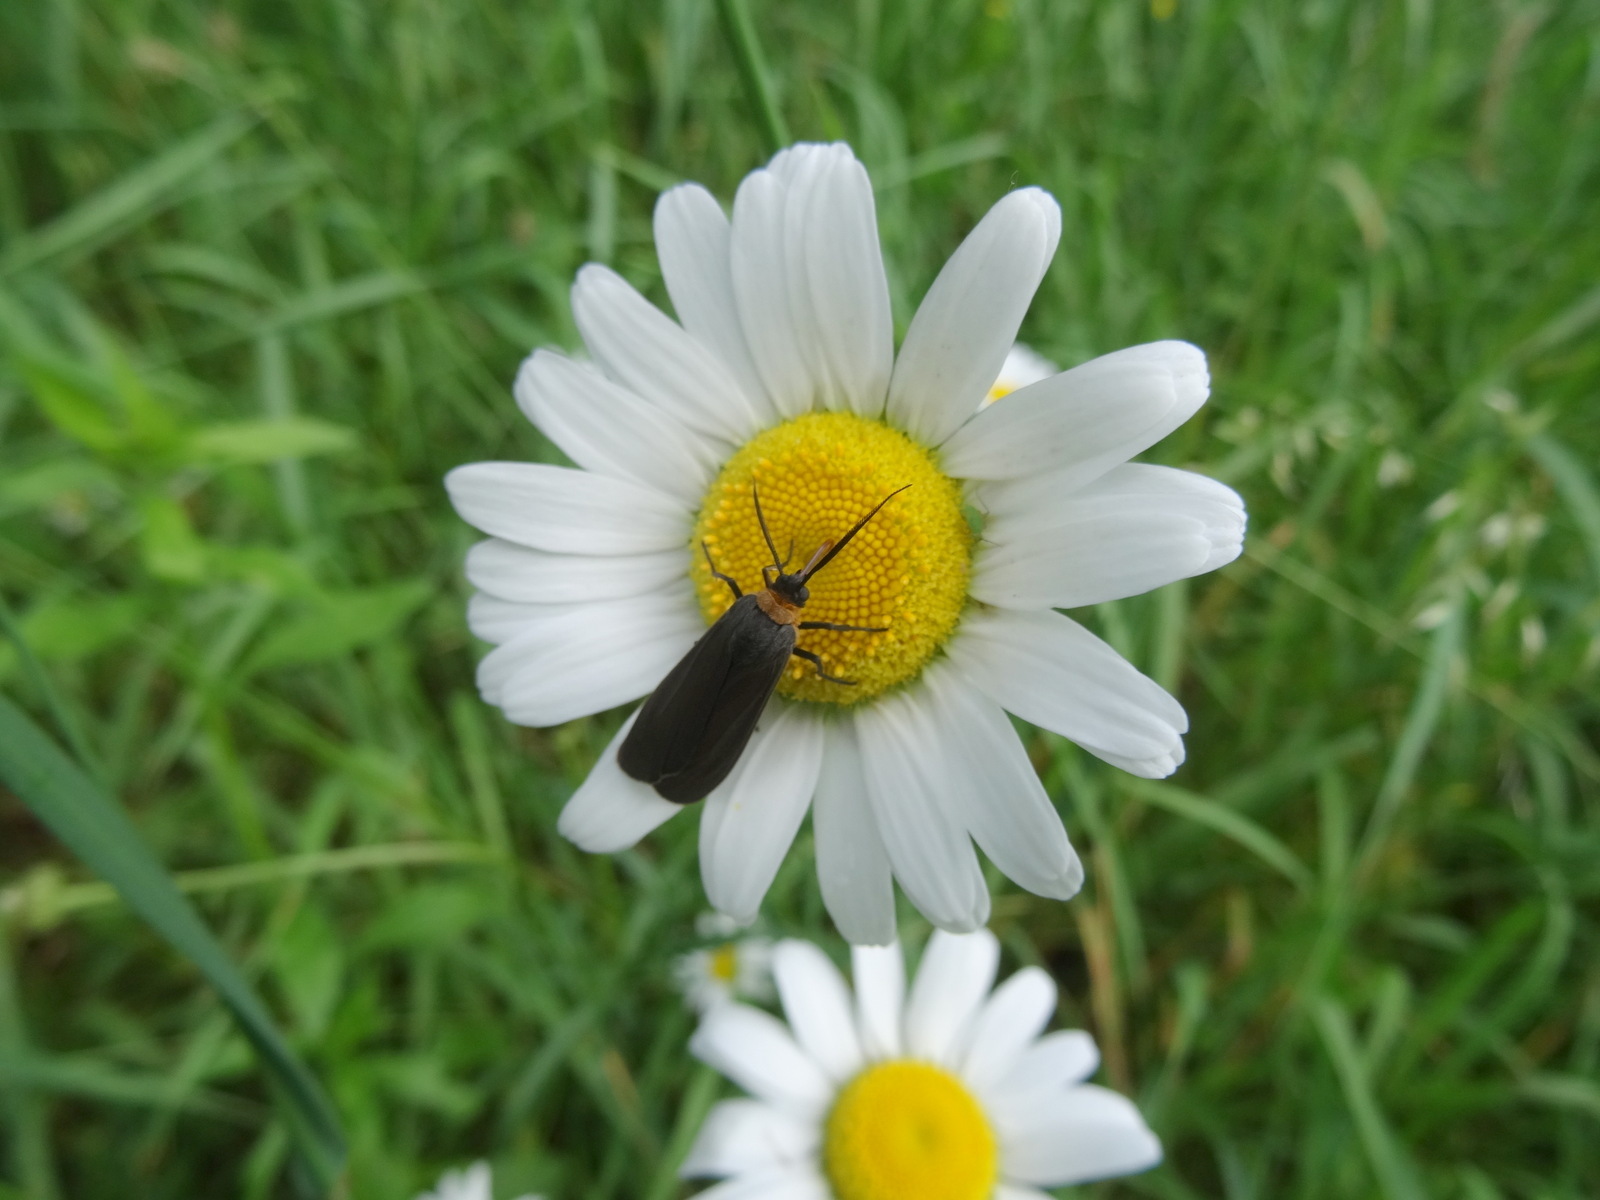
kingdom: Animalia
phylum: Arthropoda
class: Insecta
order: Lepidoptera
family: Erebidae
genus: Cisseps
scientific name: Cisseps fulvicollis
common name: Yellow-collared scape moth
